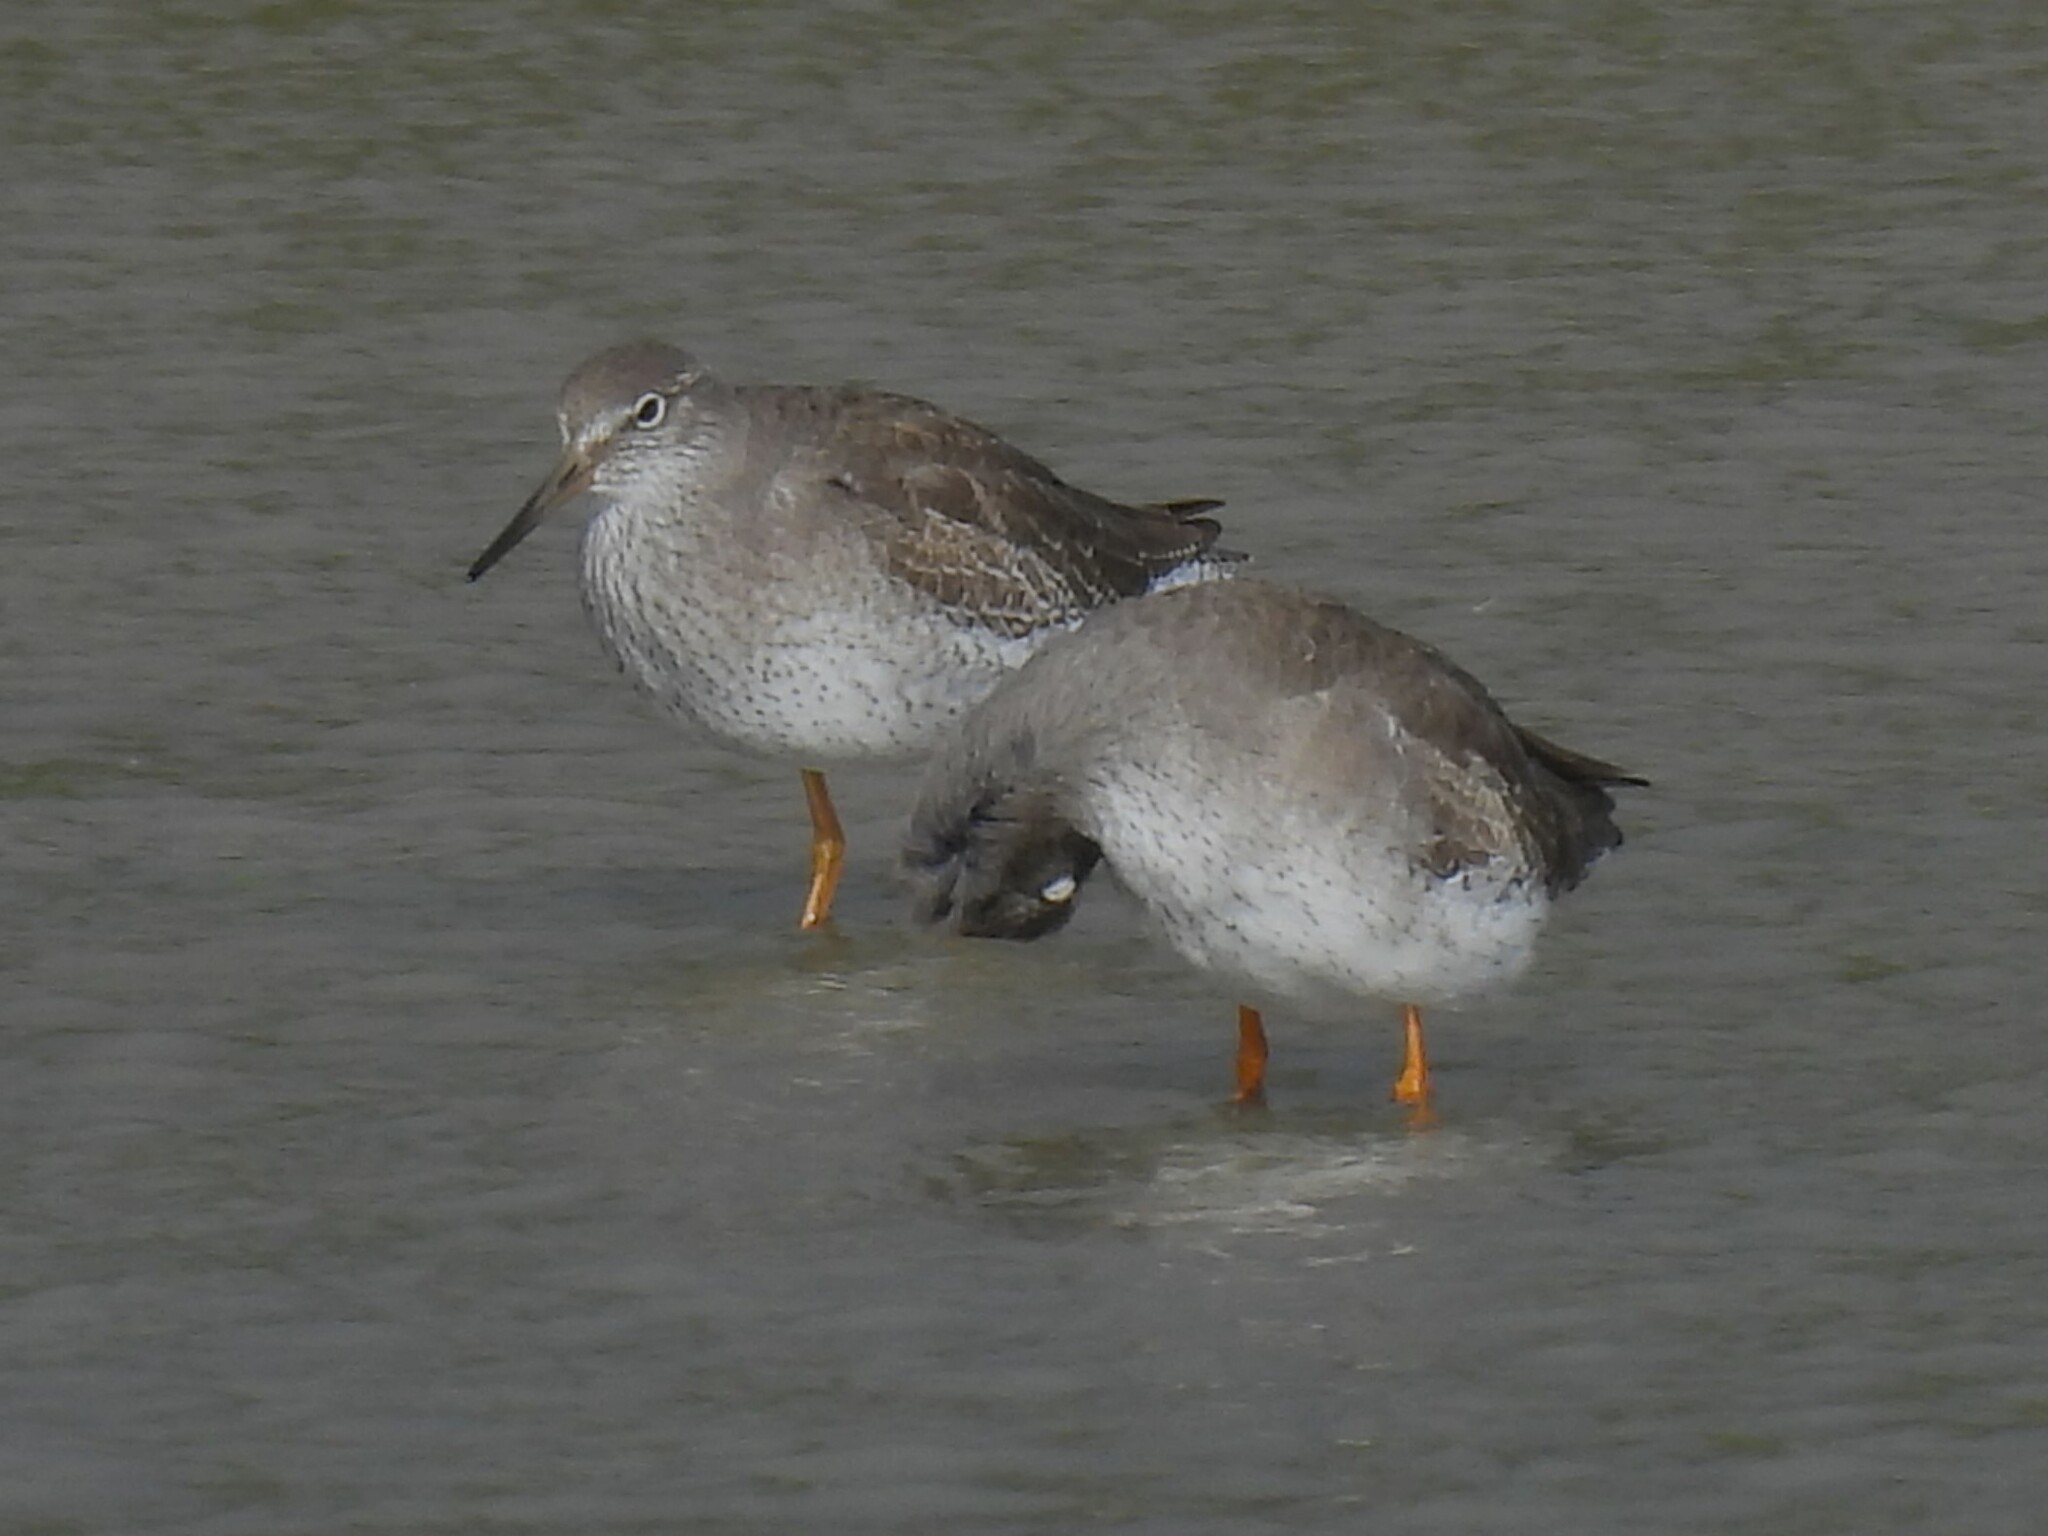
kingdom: Animalia
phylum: Chordata
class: Aves
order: Charadriiformes
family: Scolopacidae
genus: Tringa
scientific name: Tringa totanus
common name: Common redshank
